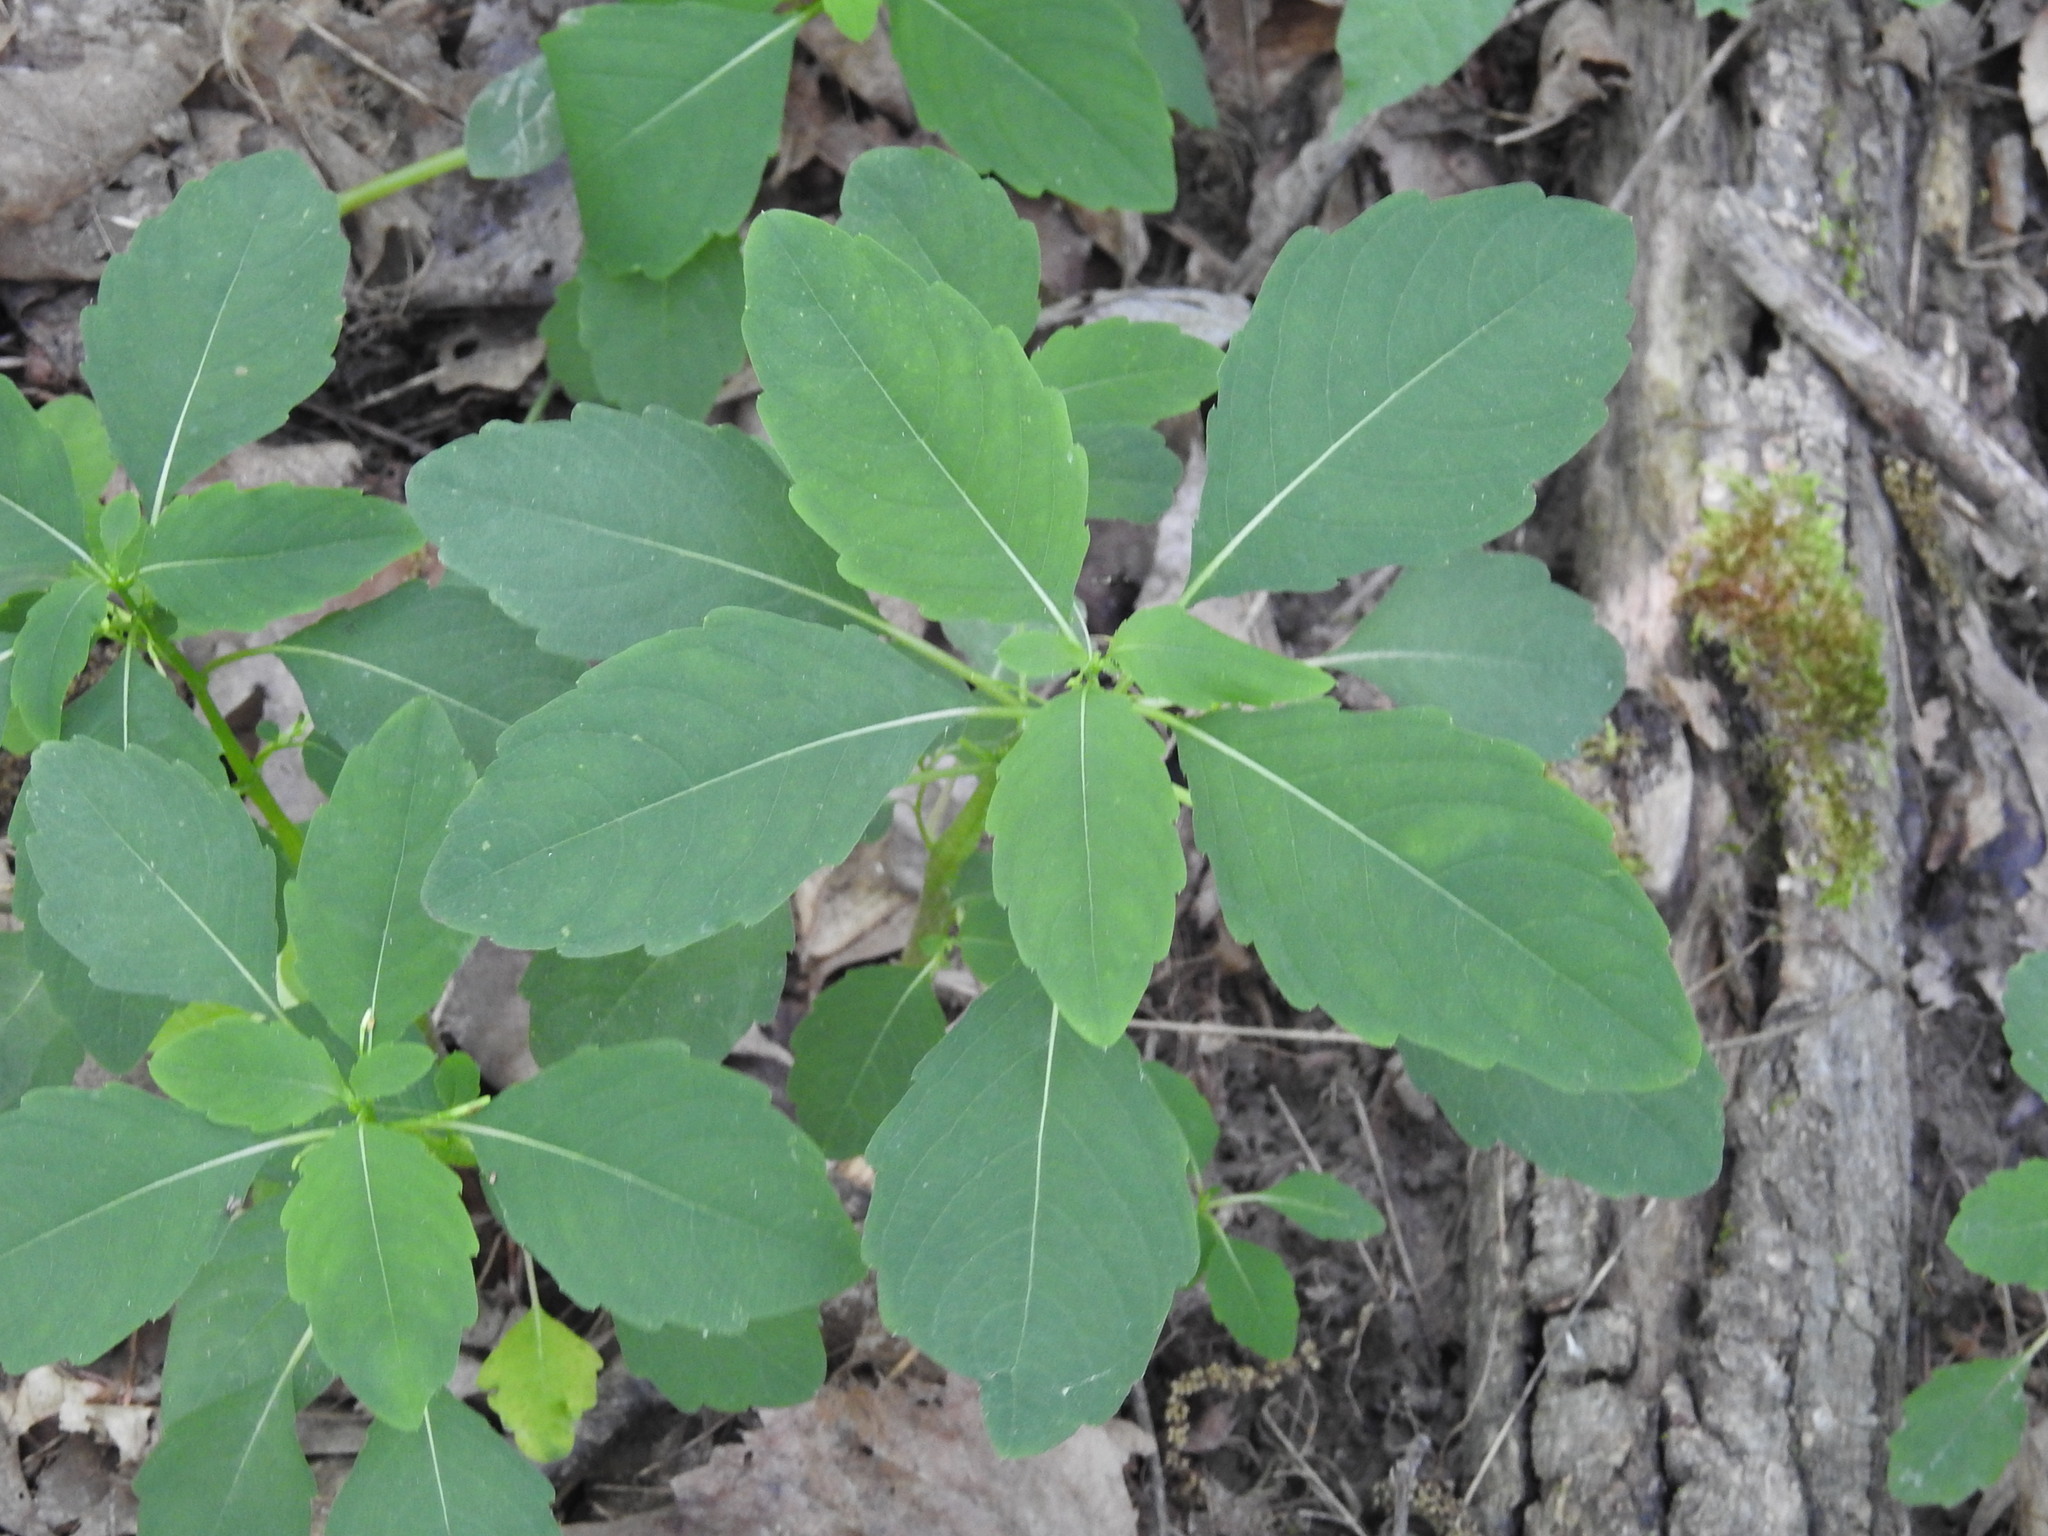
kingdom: Plantae
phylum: Tracheophyta
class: Magnoliopsida
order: Ericales
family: Balsaminaceae
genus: Impatiens
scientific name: Impatiens capensis
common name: Orange balsam
